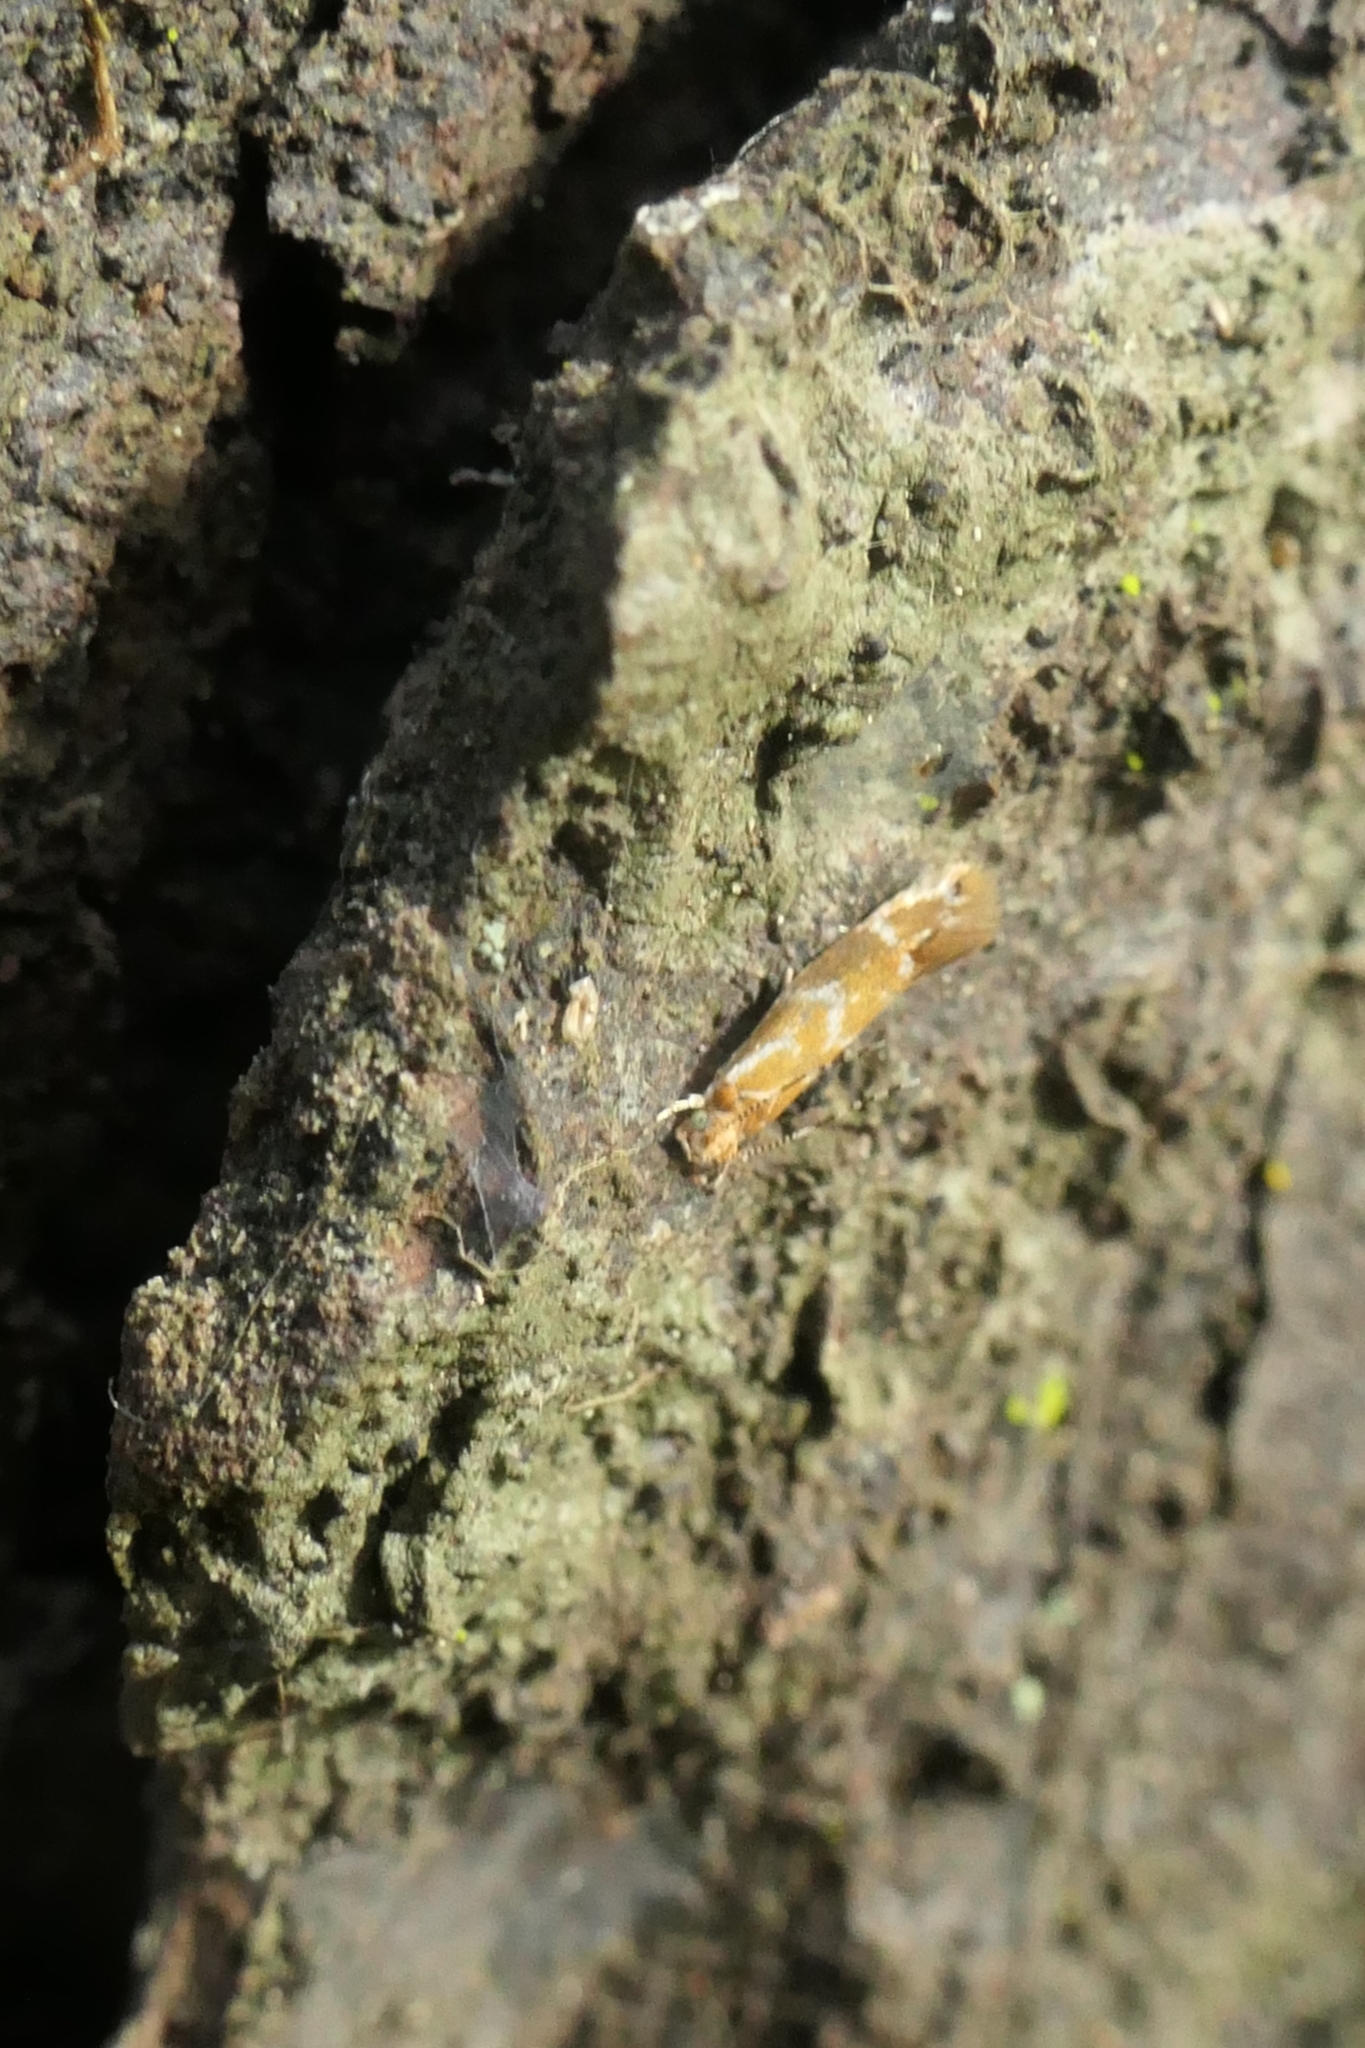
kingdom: Animalia
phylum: Arthropoda
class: Insecta
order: Lepidoptera
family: Dryadaulidae
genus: Dryadaula
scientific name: Dryadaula castanea
